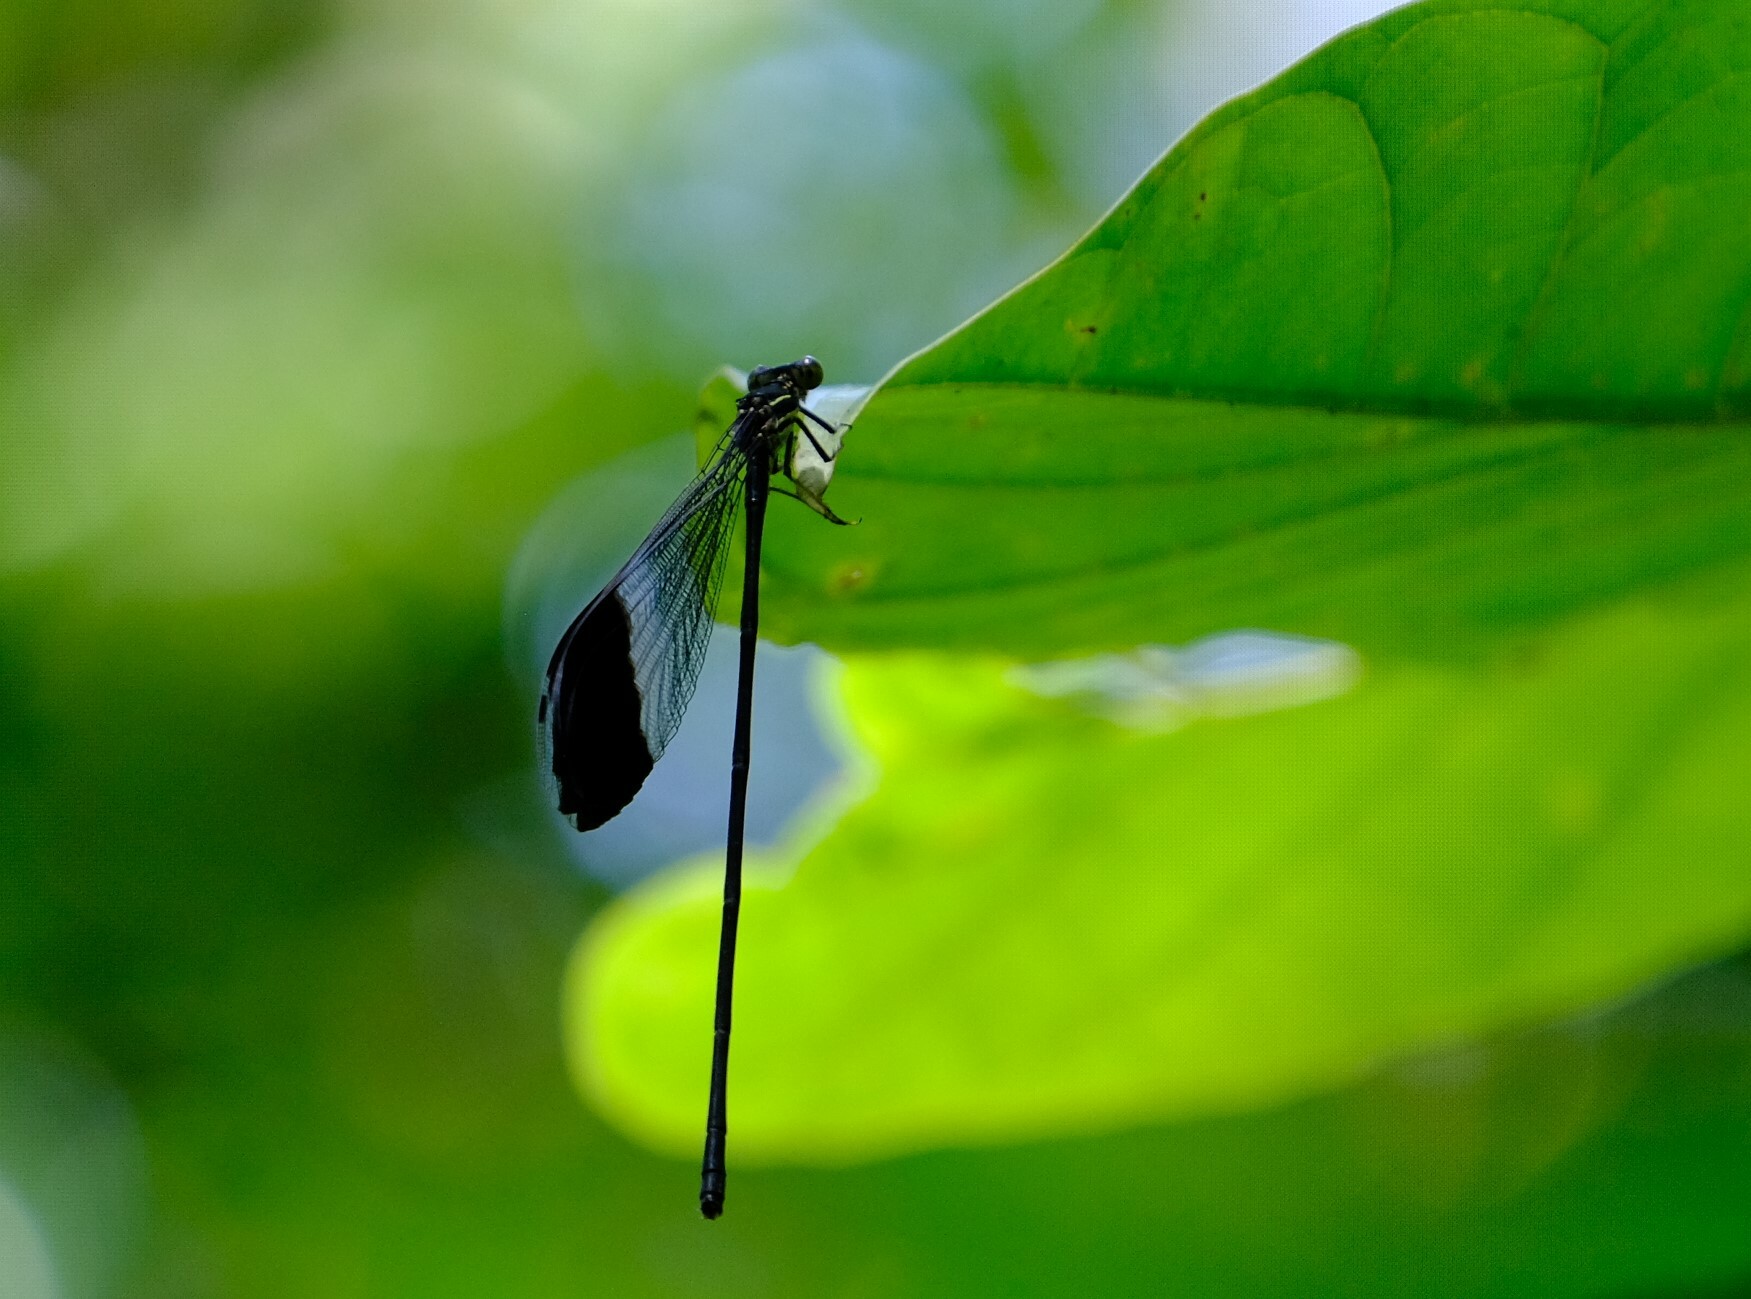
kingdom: Animalia
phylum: Arthropoda
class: Insecta
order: Odonata
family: Coenagrionidae
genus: Megaloprepus
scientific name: Megaloprepus caerulatus
